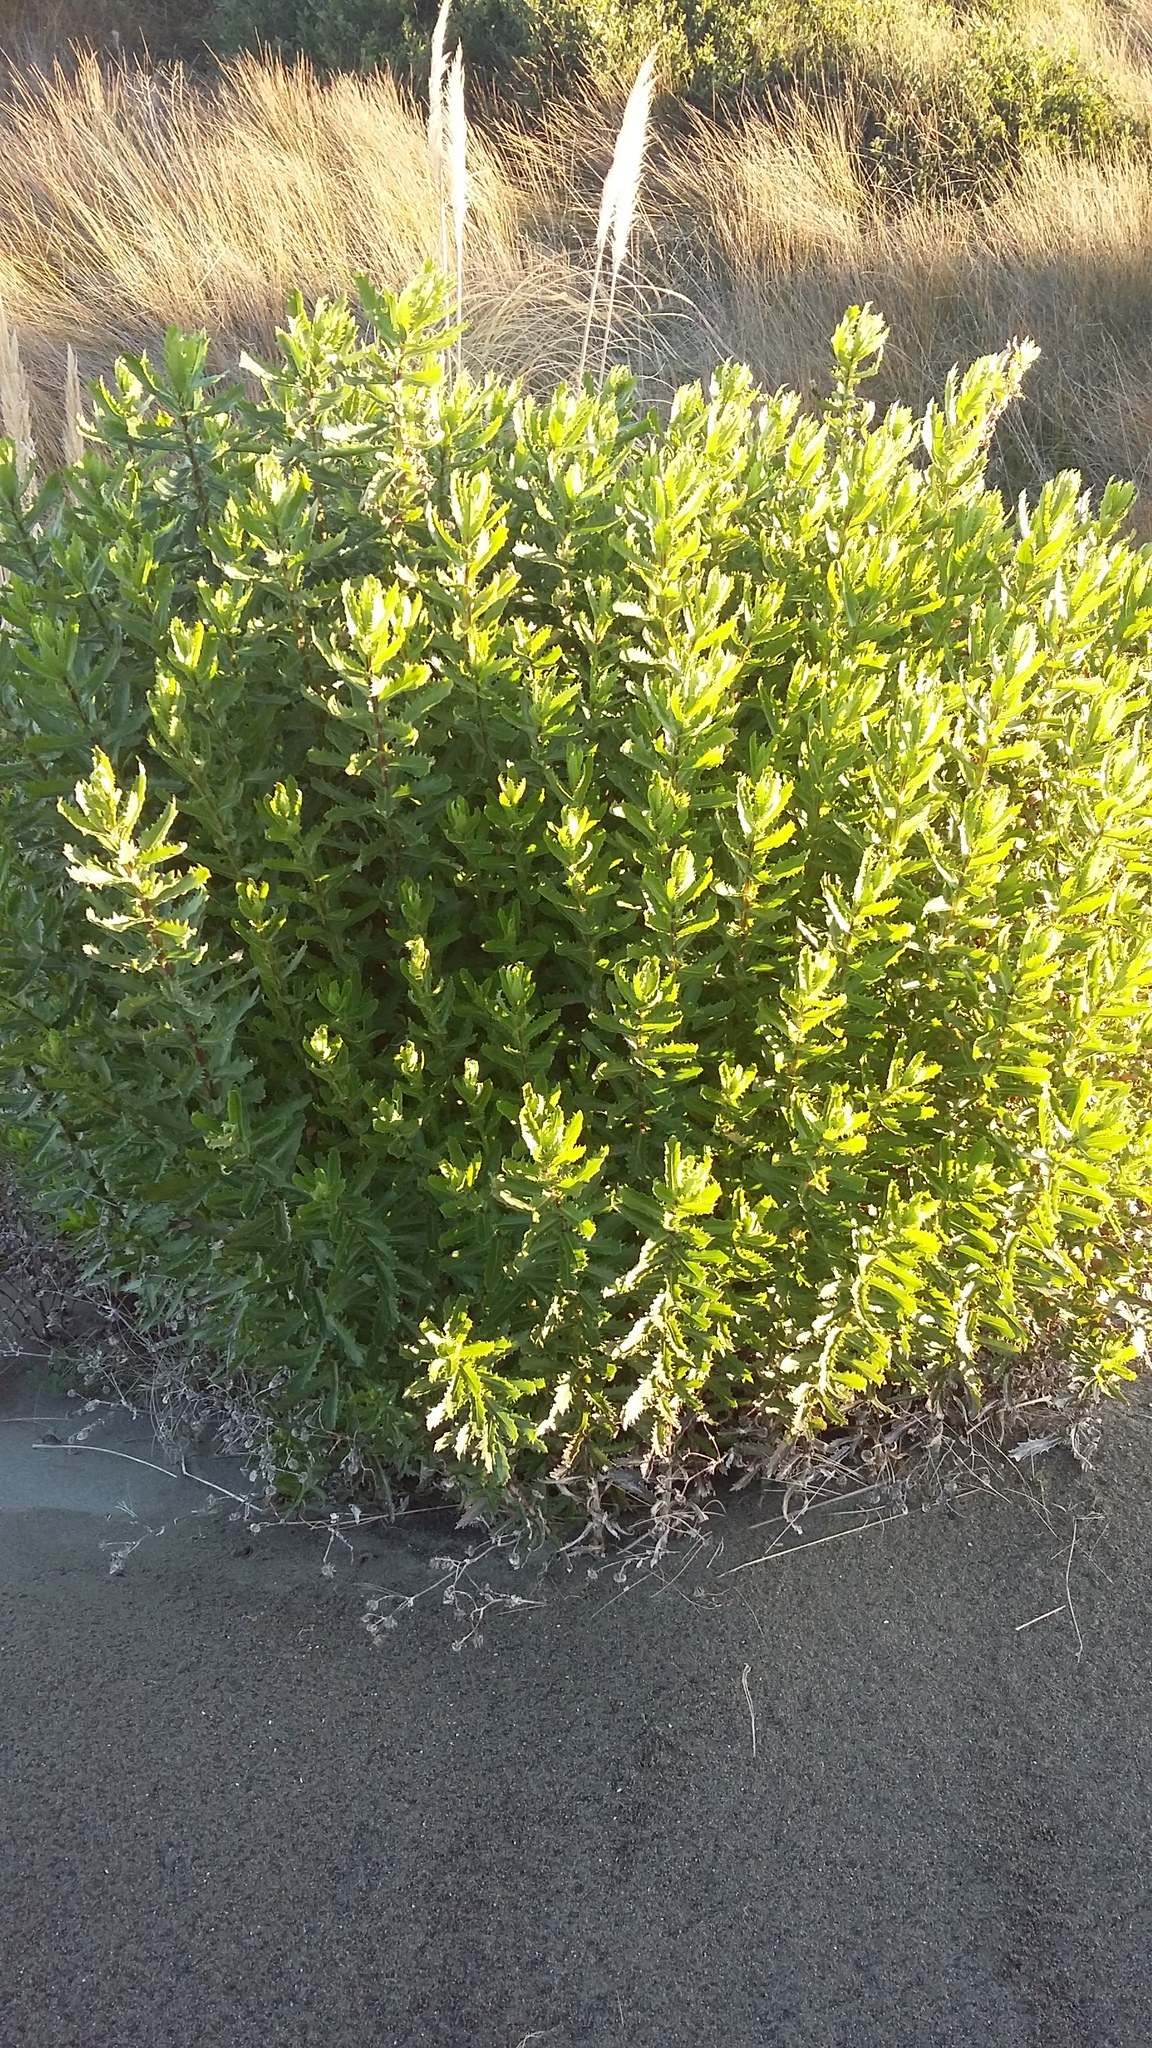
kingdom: Plantae
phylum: Tracheophyta
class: Magnoliopsida
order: Asterales
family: Asteraceae
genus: Senecio
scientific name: Senecio glastifolius
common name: Woad-leaved ragwort
